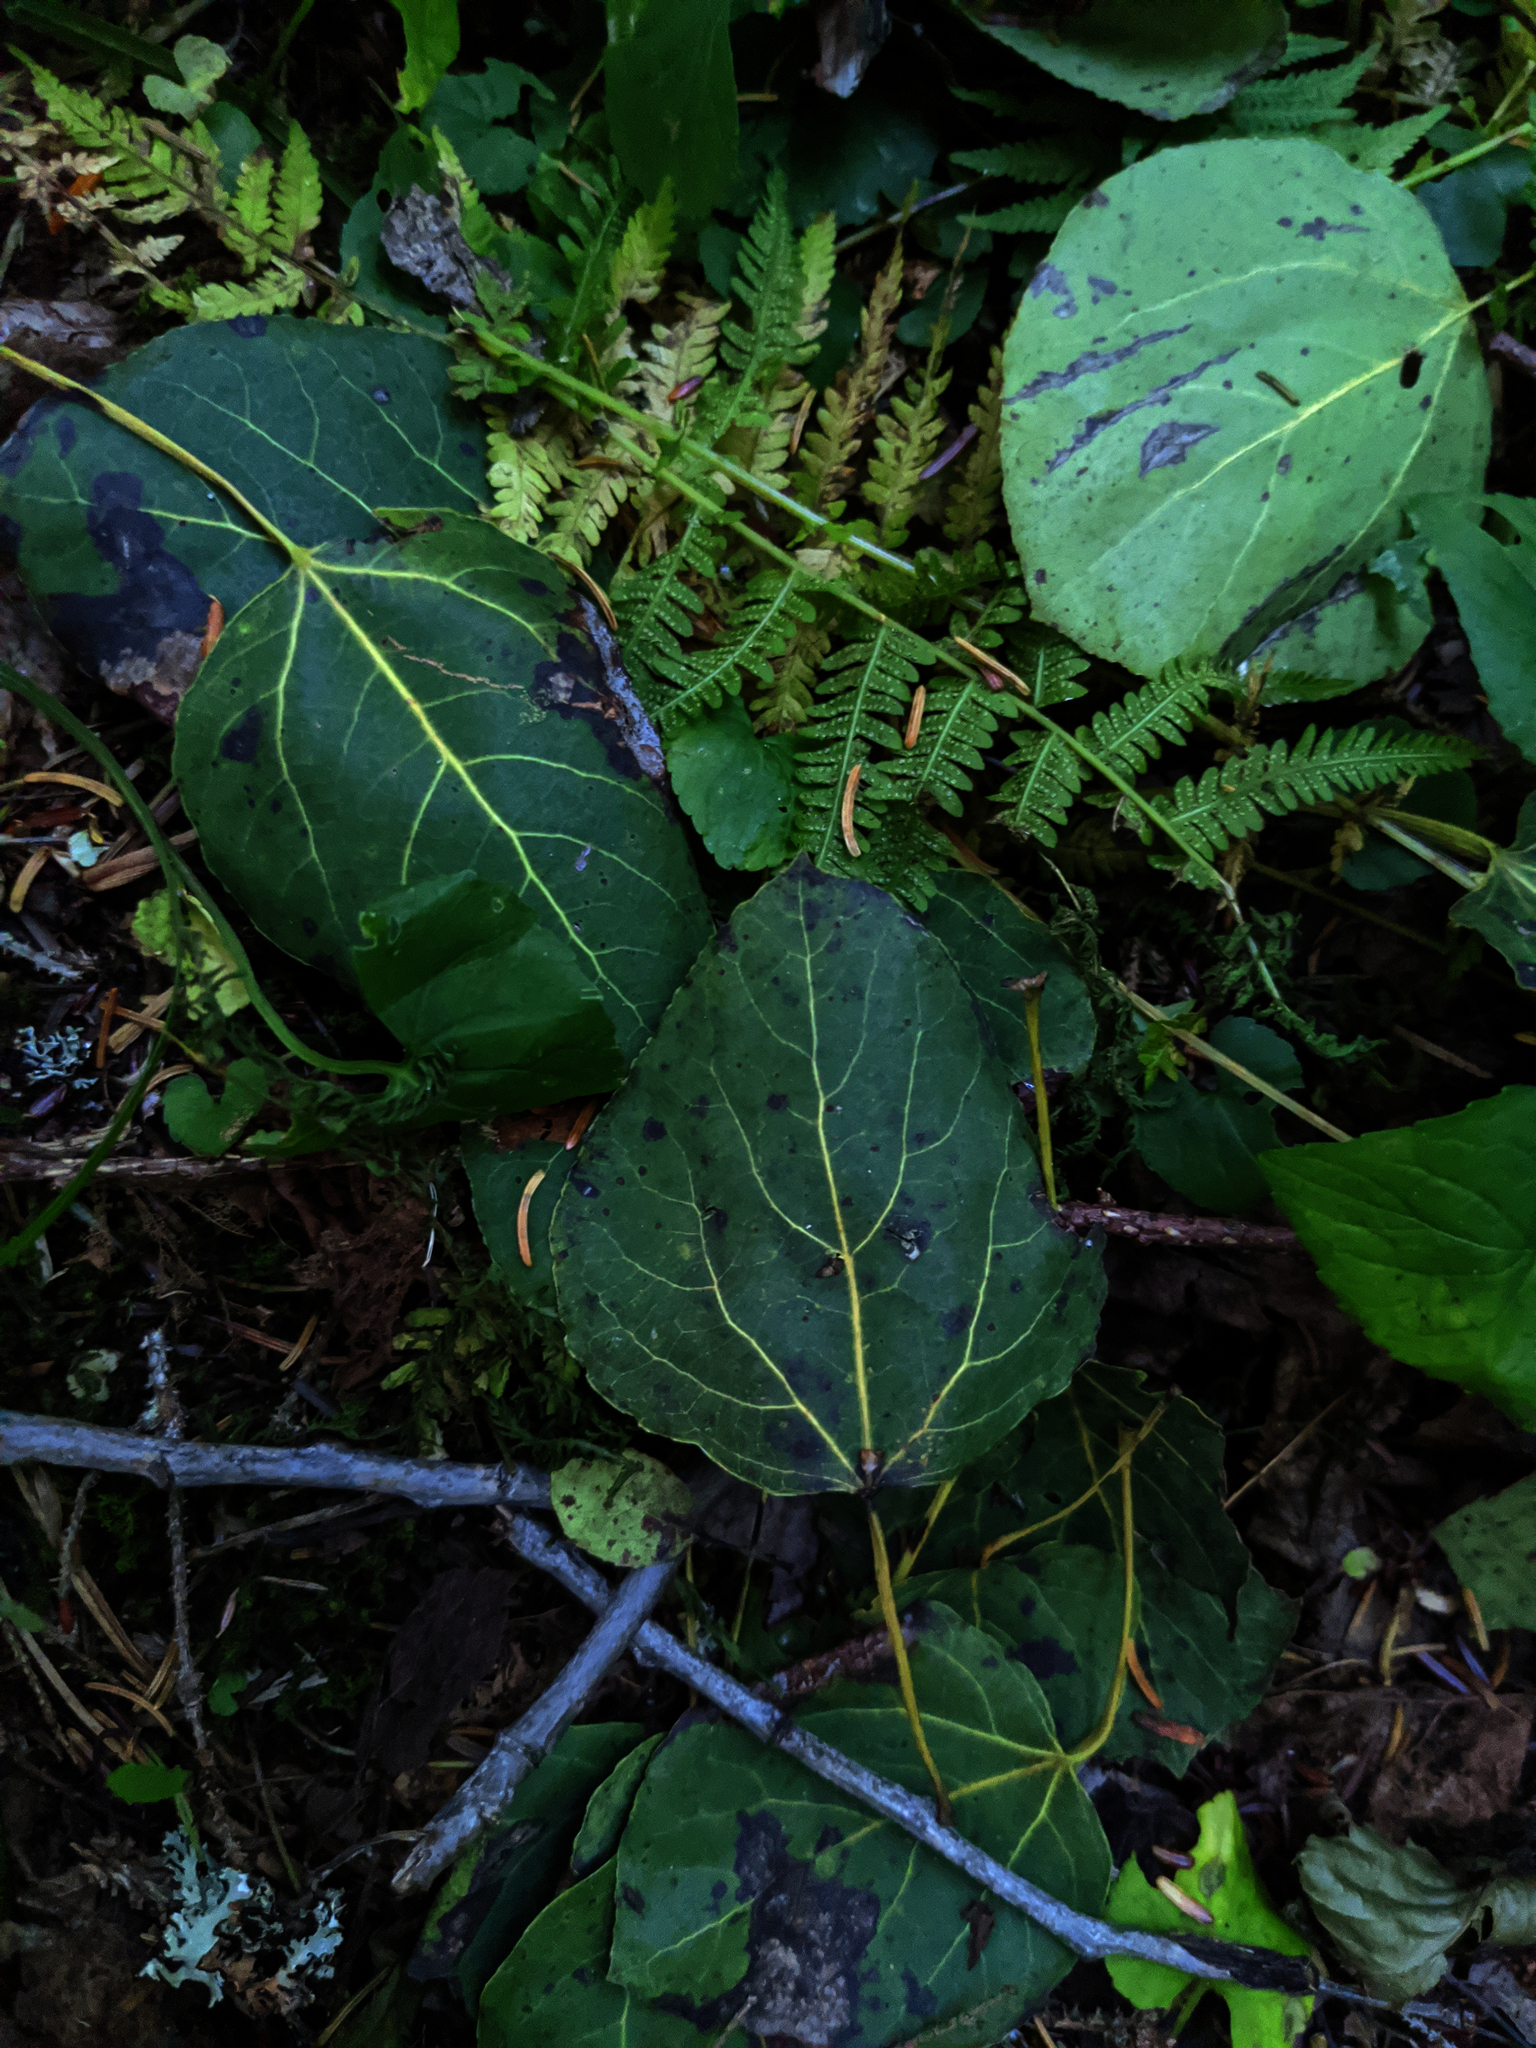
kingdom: Plantae
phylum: Tracheophyta
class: Magnoliopsida
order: Malpighiales
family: Salicaceae
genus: Populus
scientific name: Populus tremuloides
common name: Quaking aspen
